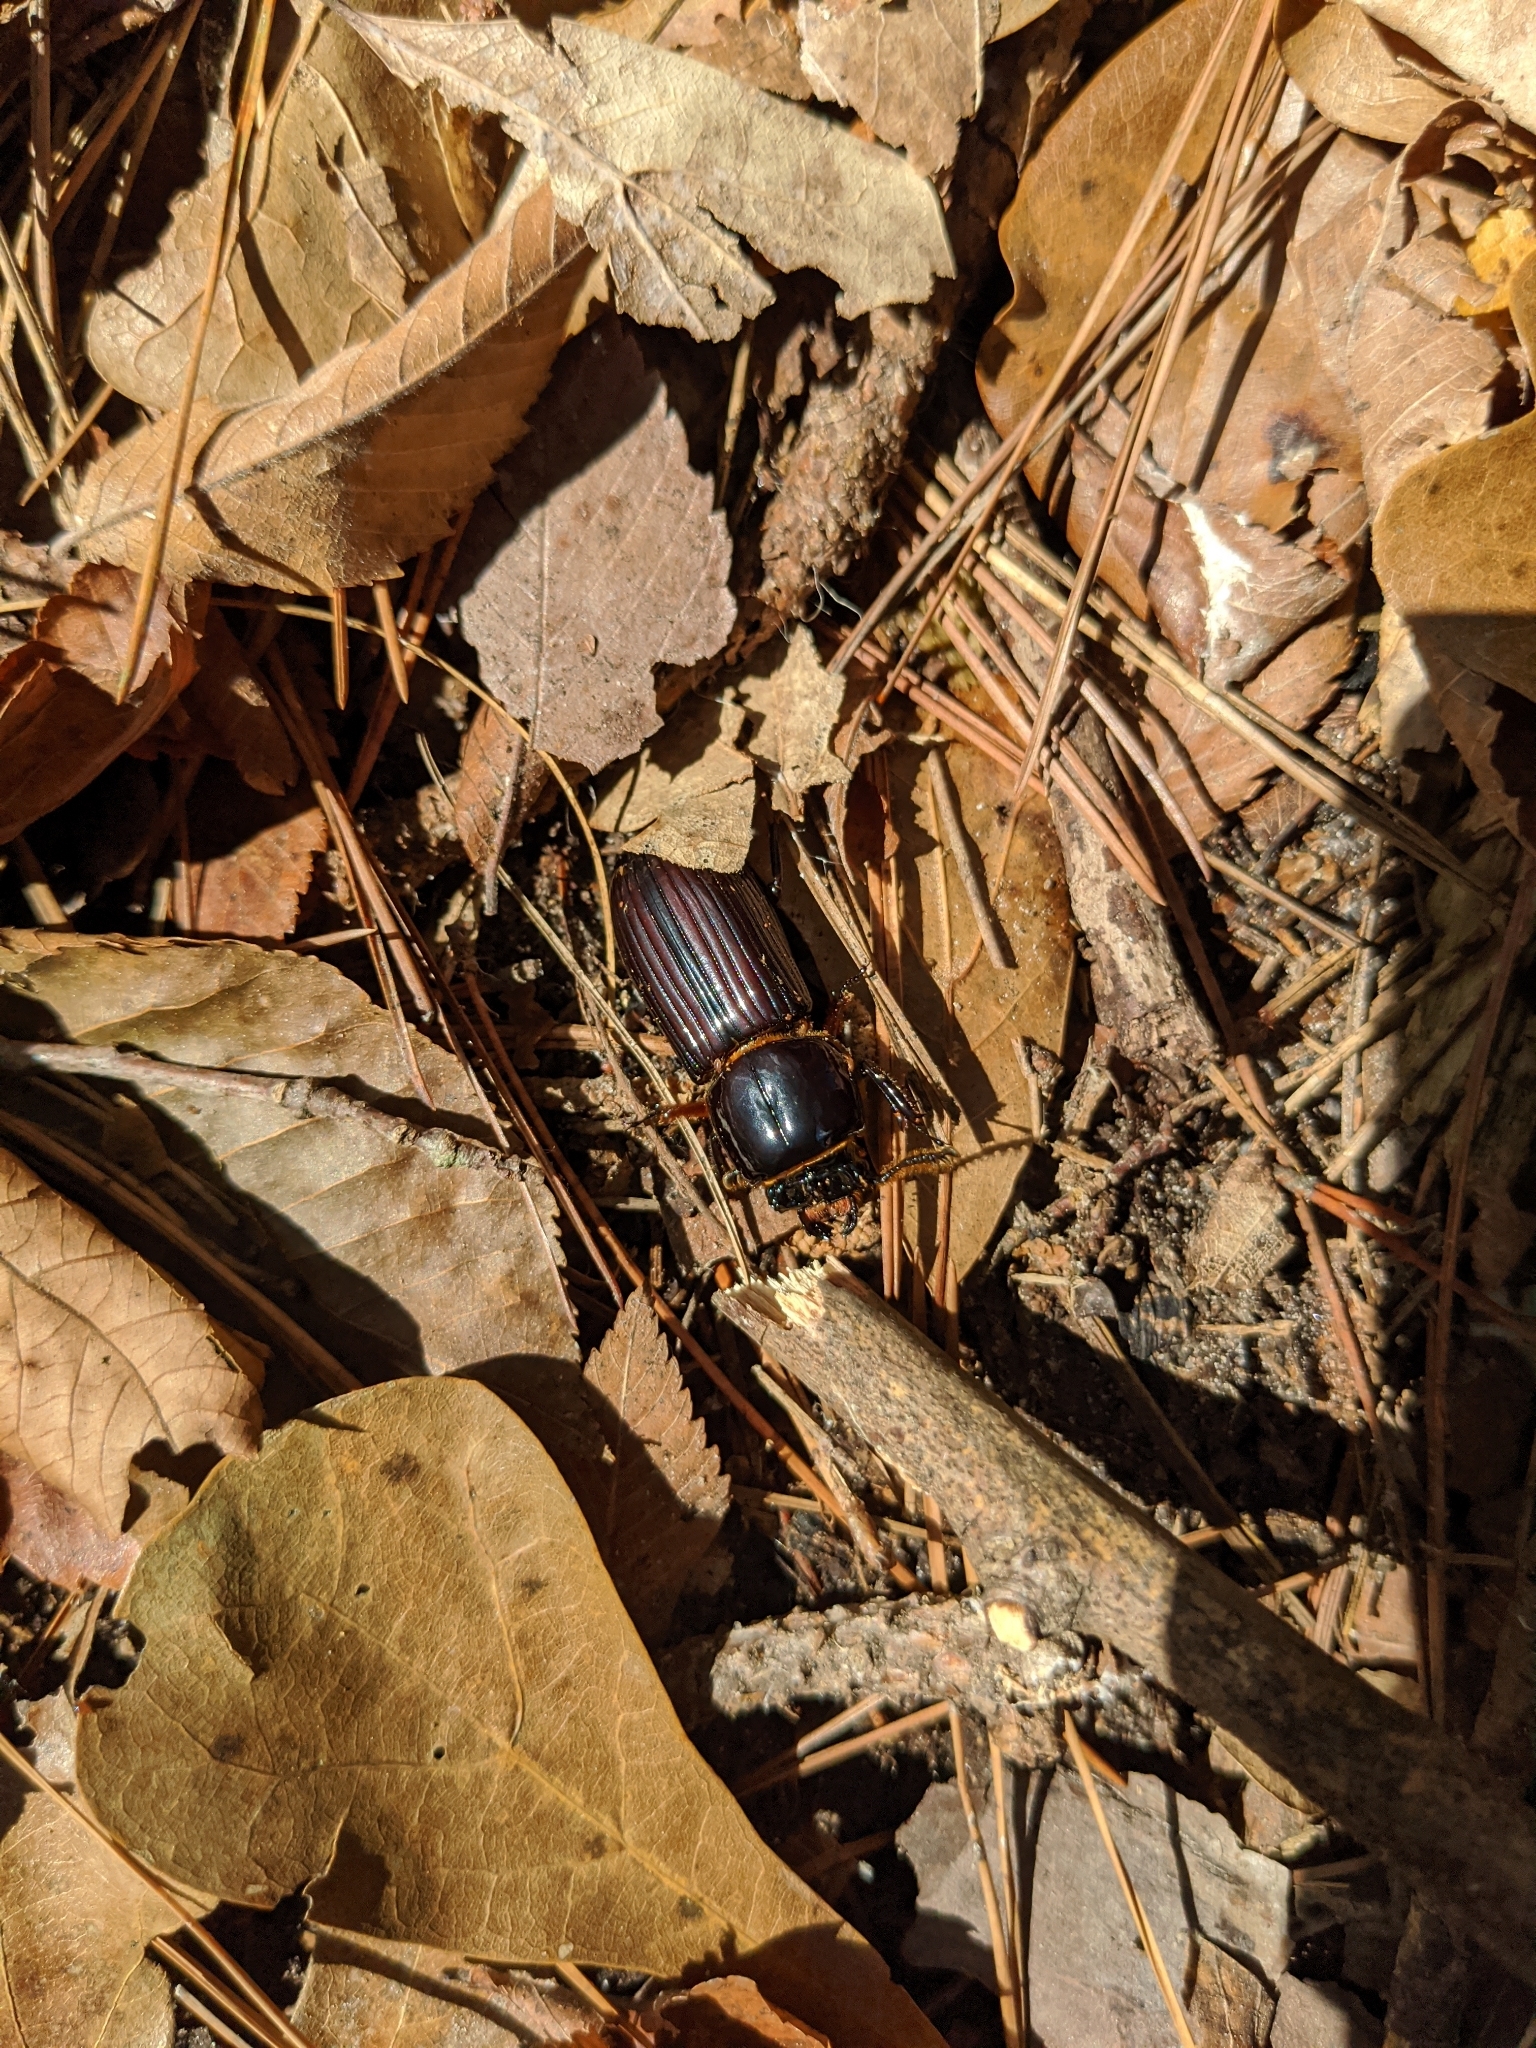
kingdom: Animalia
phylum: Arthropoda
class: Insecta
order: Coleoptera
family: Passalidae
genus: Odontotaenius
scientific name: Odontotaenius disjunctus
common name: Patent leather beetle
